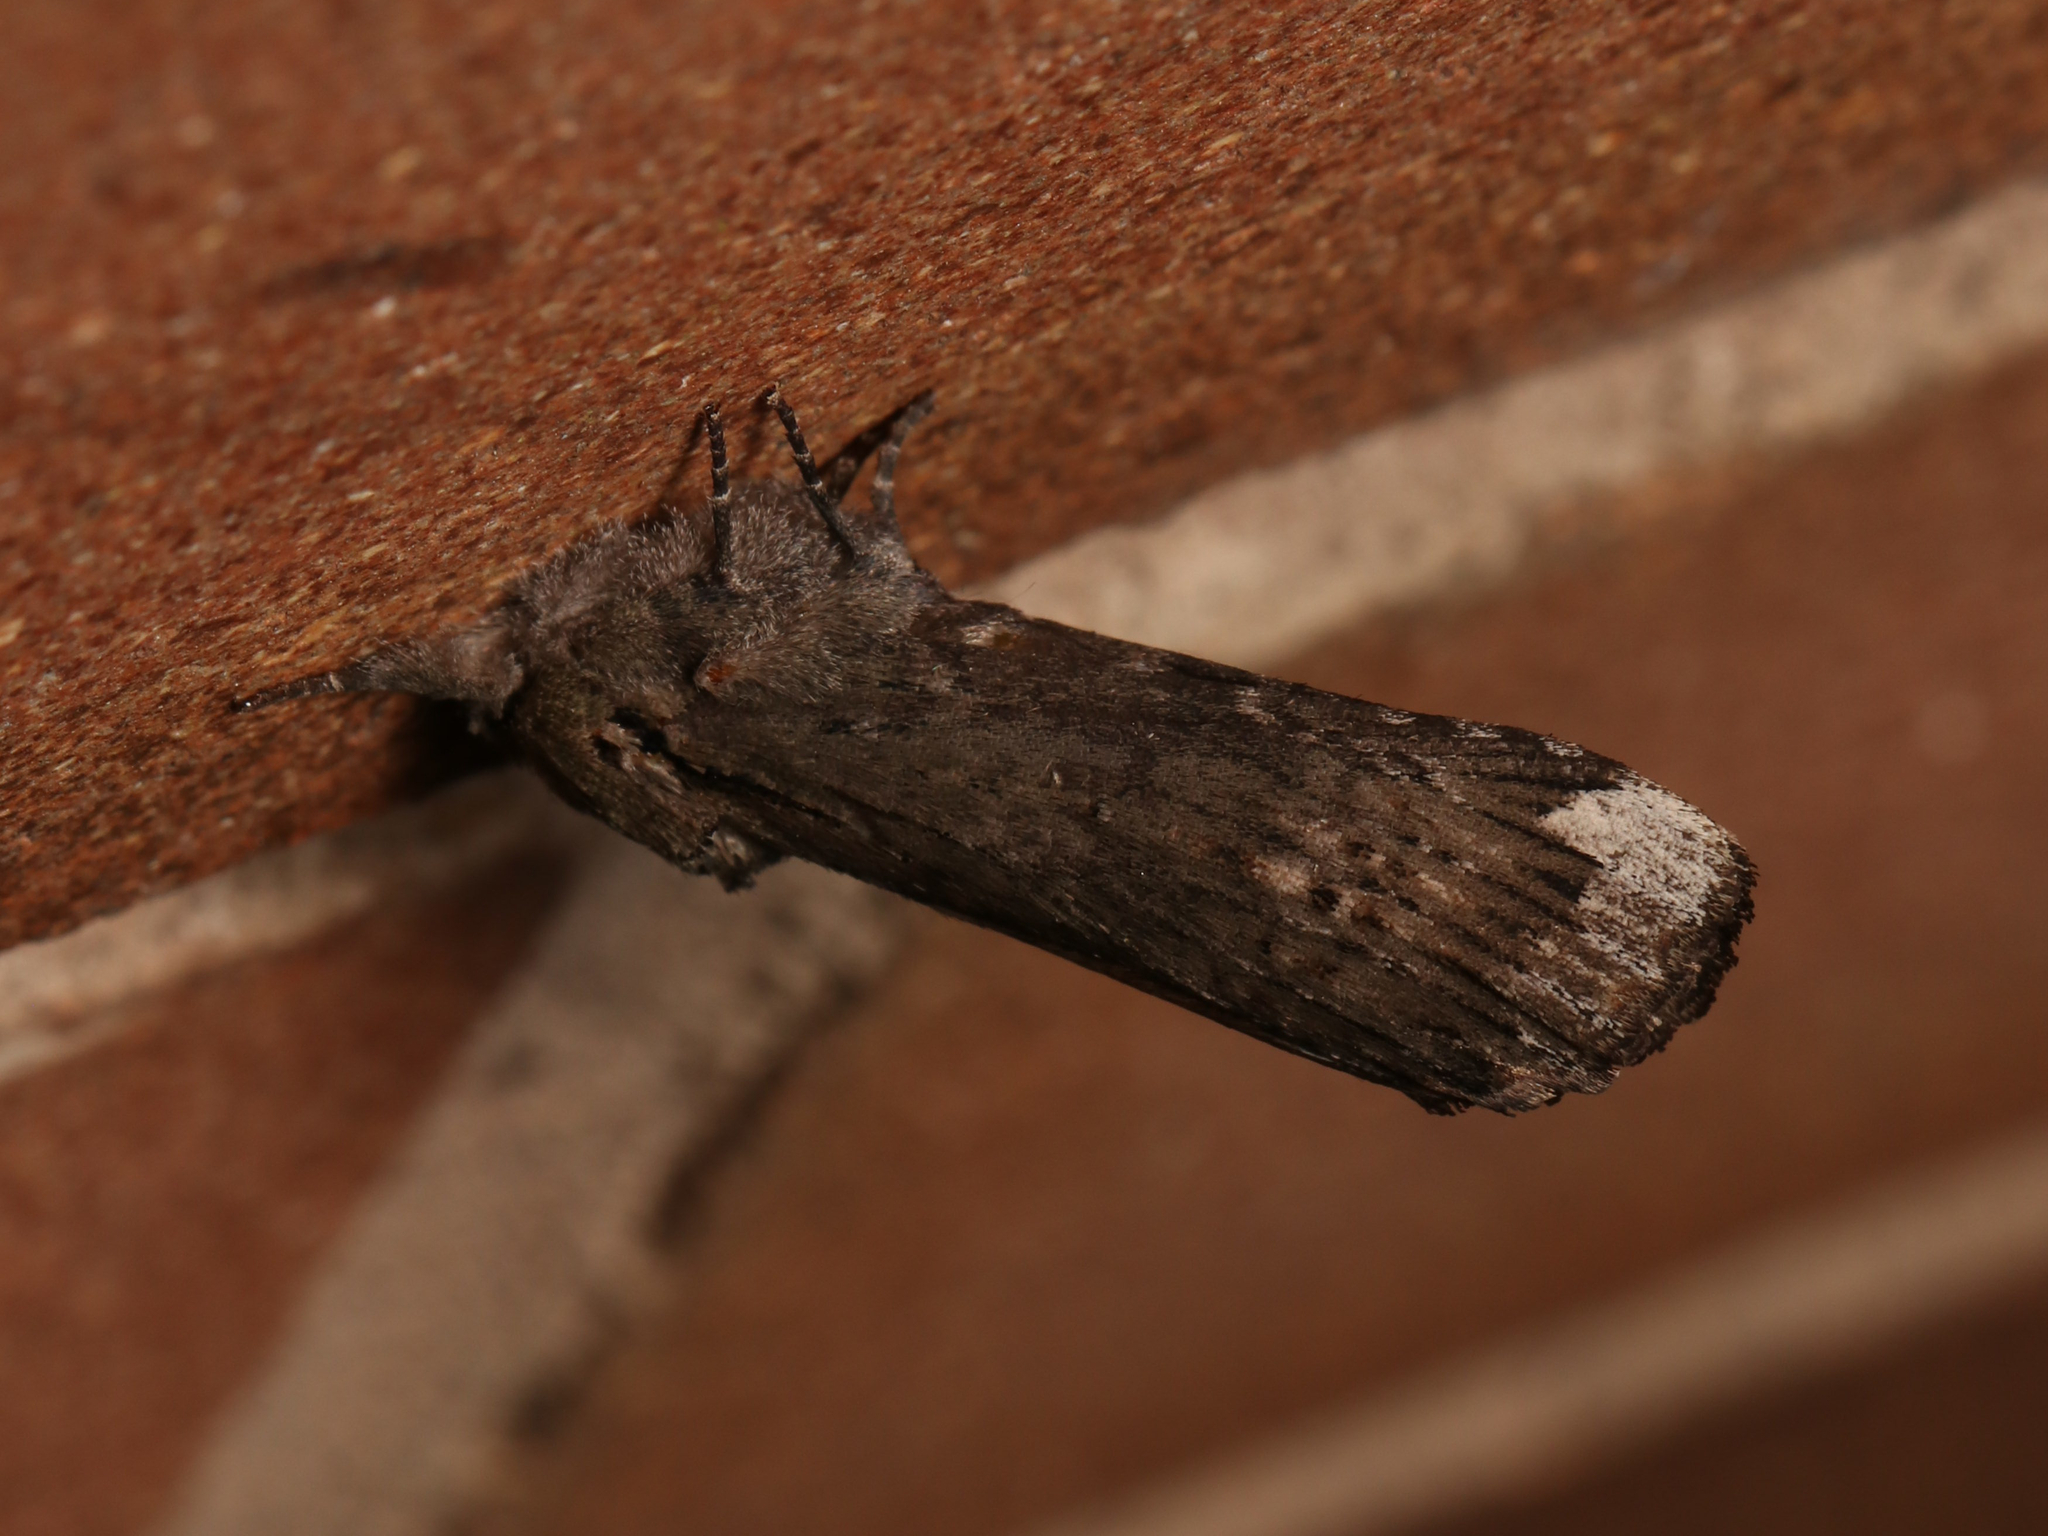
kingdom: Animalia
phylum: Arthropoda
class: Insecta
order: Lepidoptera
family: Notodontidae
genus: Schizura
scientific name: Schizura
